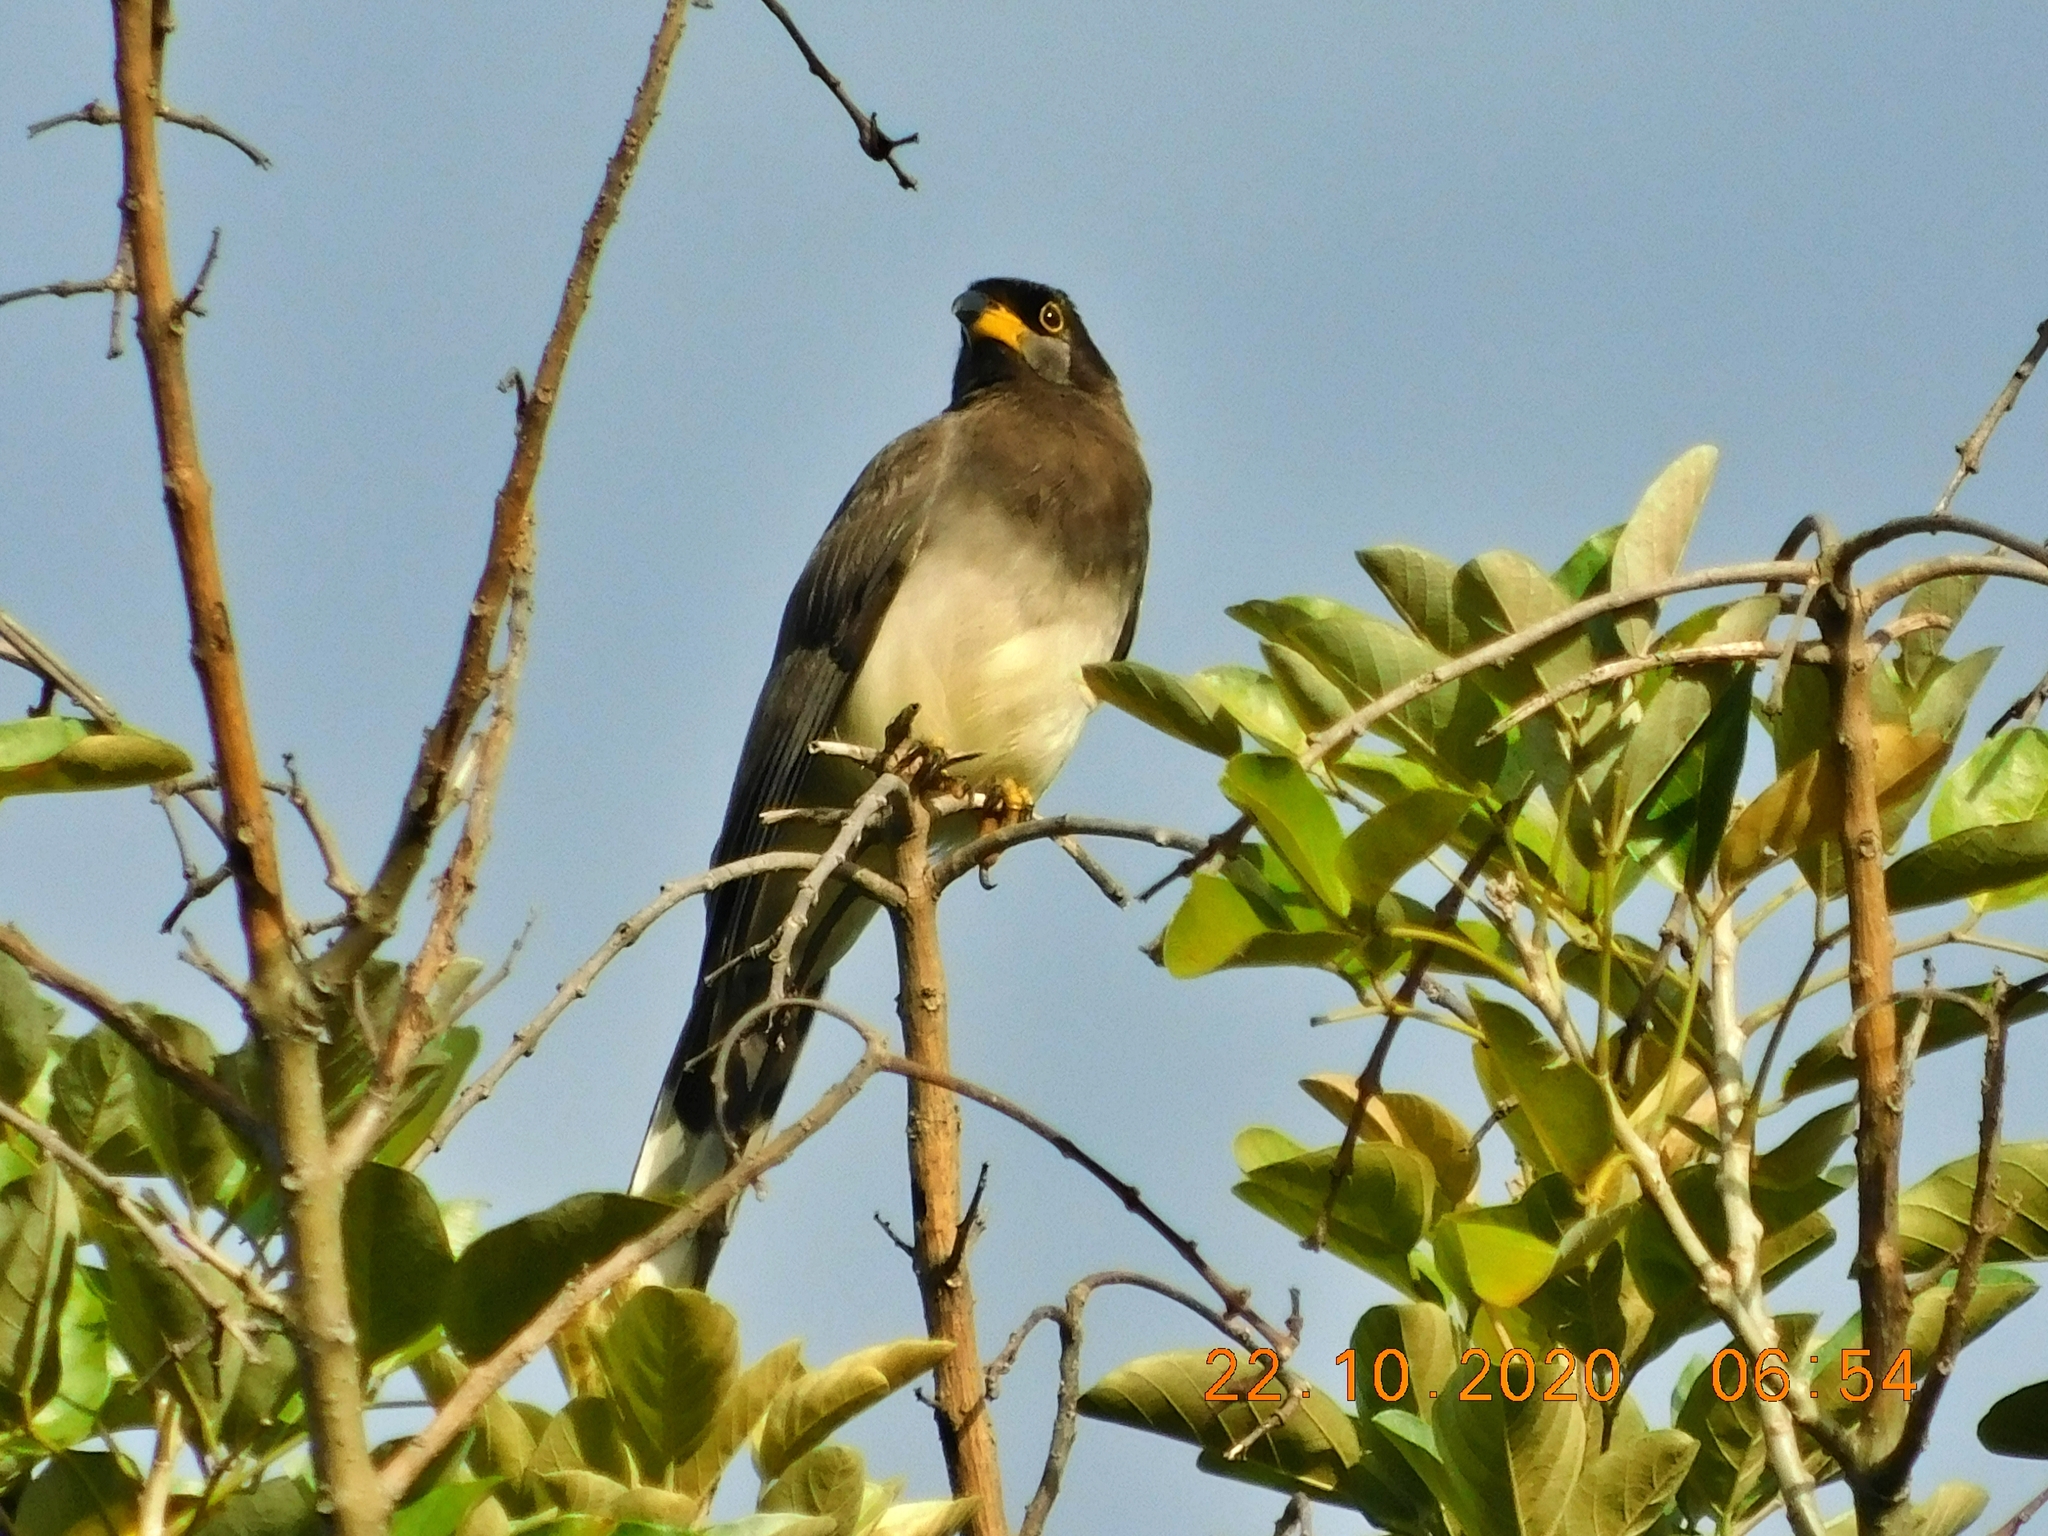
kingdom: Animalia
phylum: Chordata
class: Aves
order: Passeriformes
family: Corvidae
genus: Psilorhinus
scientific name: Psilorhinus morio
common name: Brown jay
